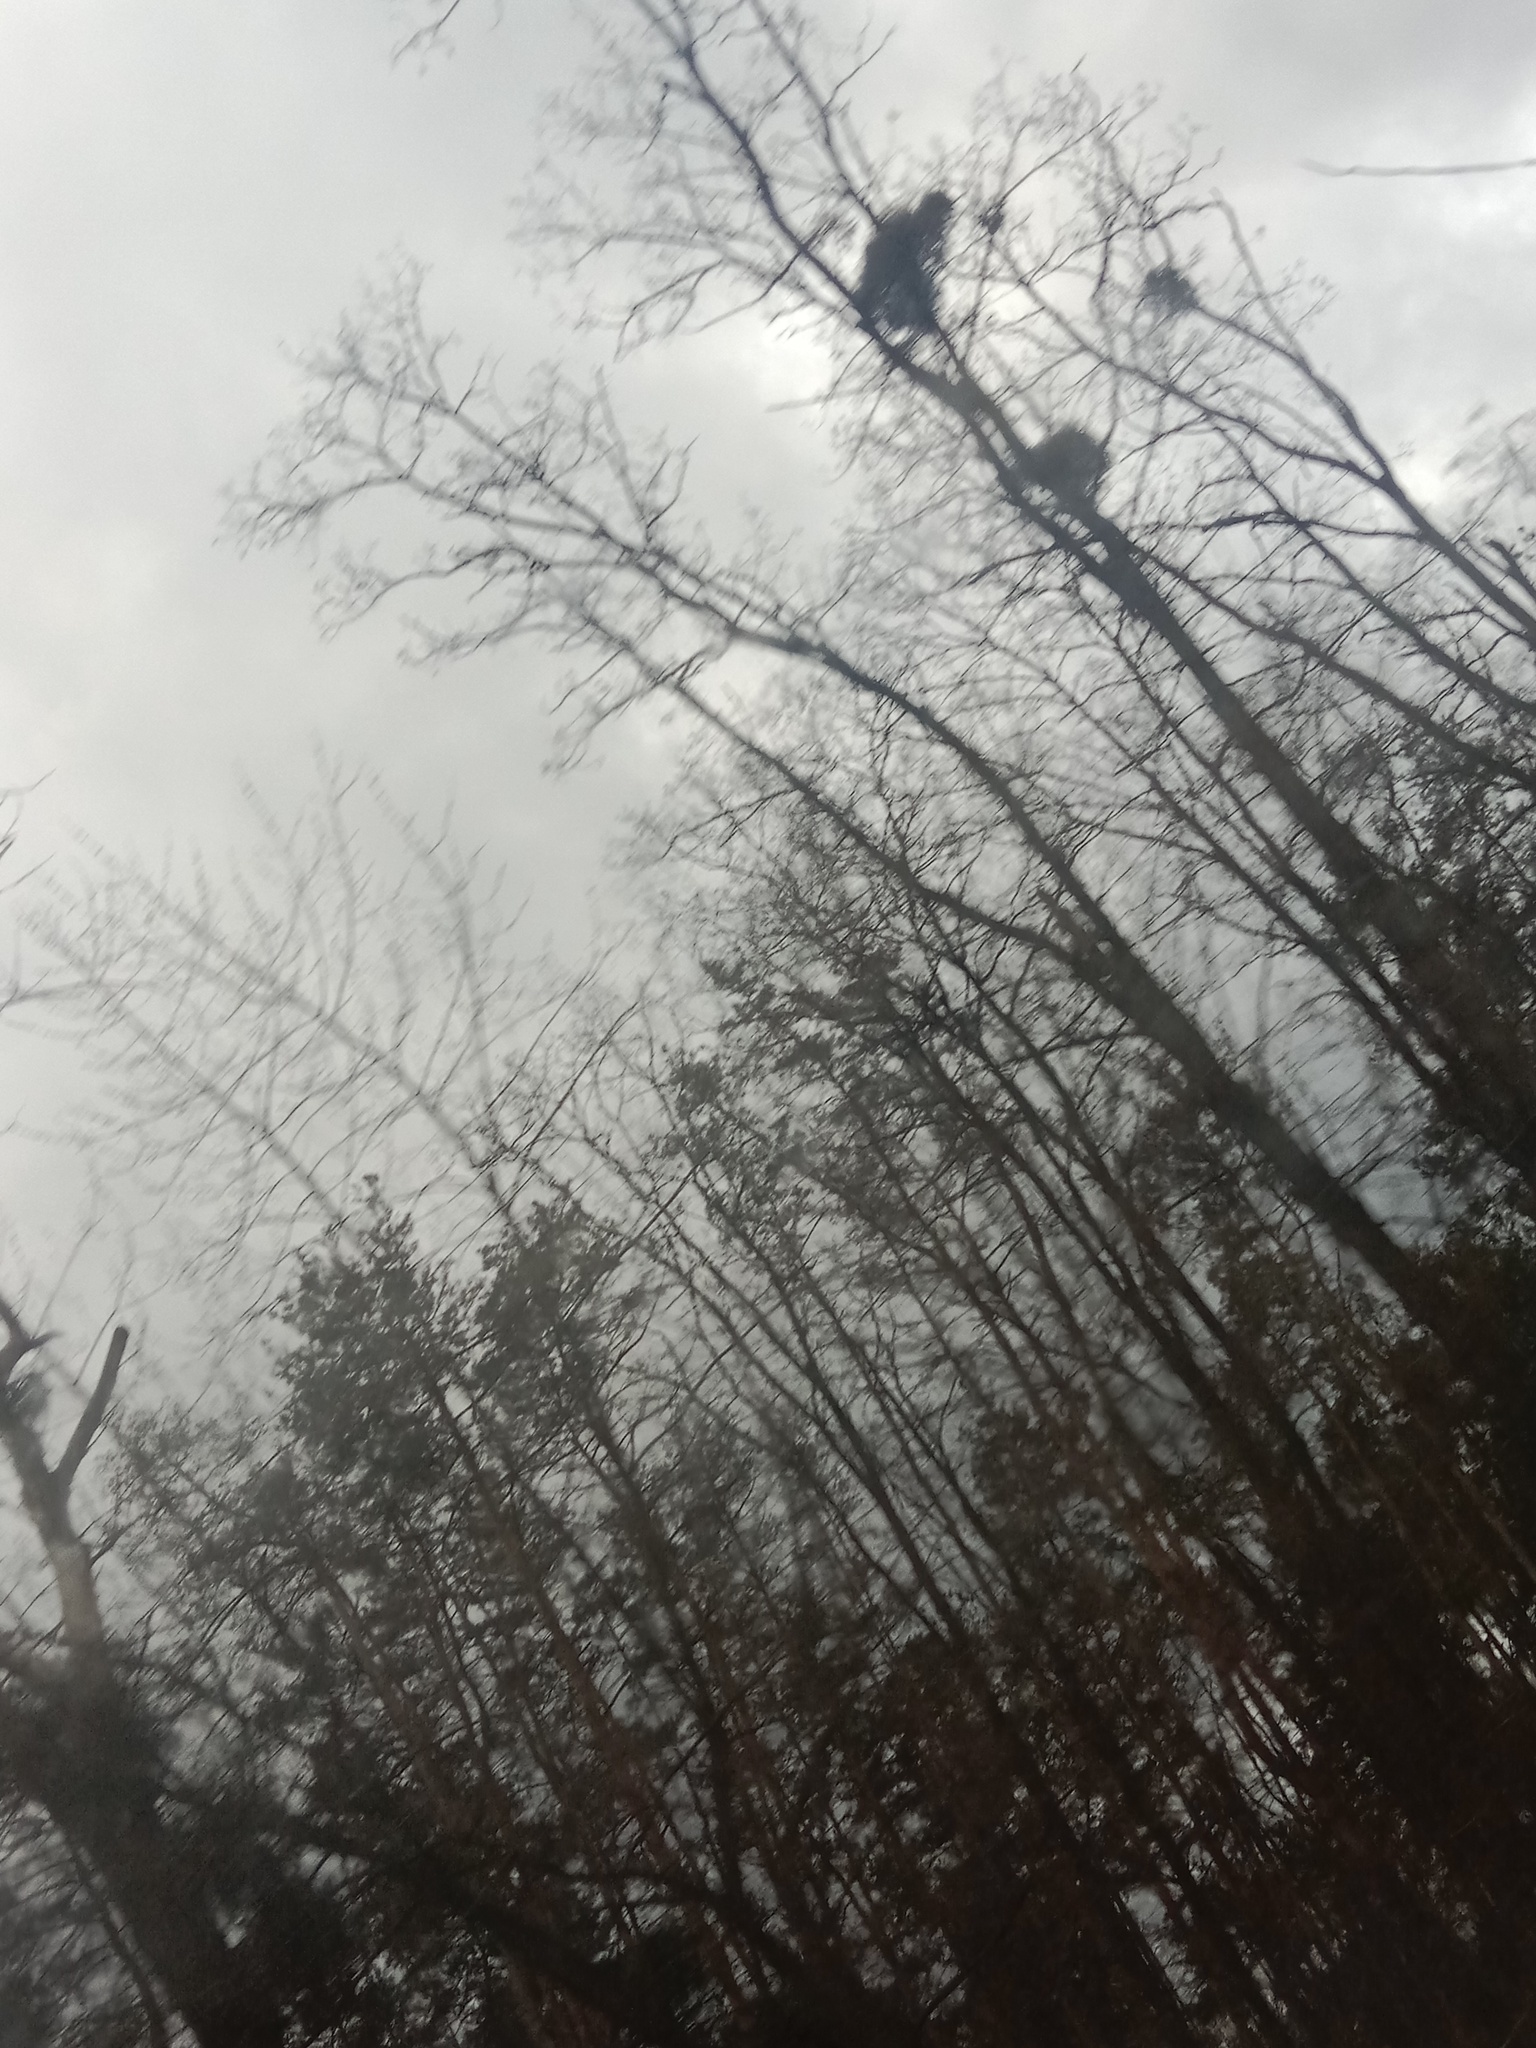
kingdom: Plantae
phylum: Tracheophyta
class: Magnoliopsida
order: Santalales
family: Viscaceae
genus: Viscum
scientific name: Viscum album
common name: Mistletoe
